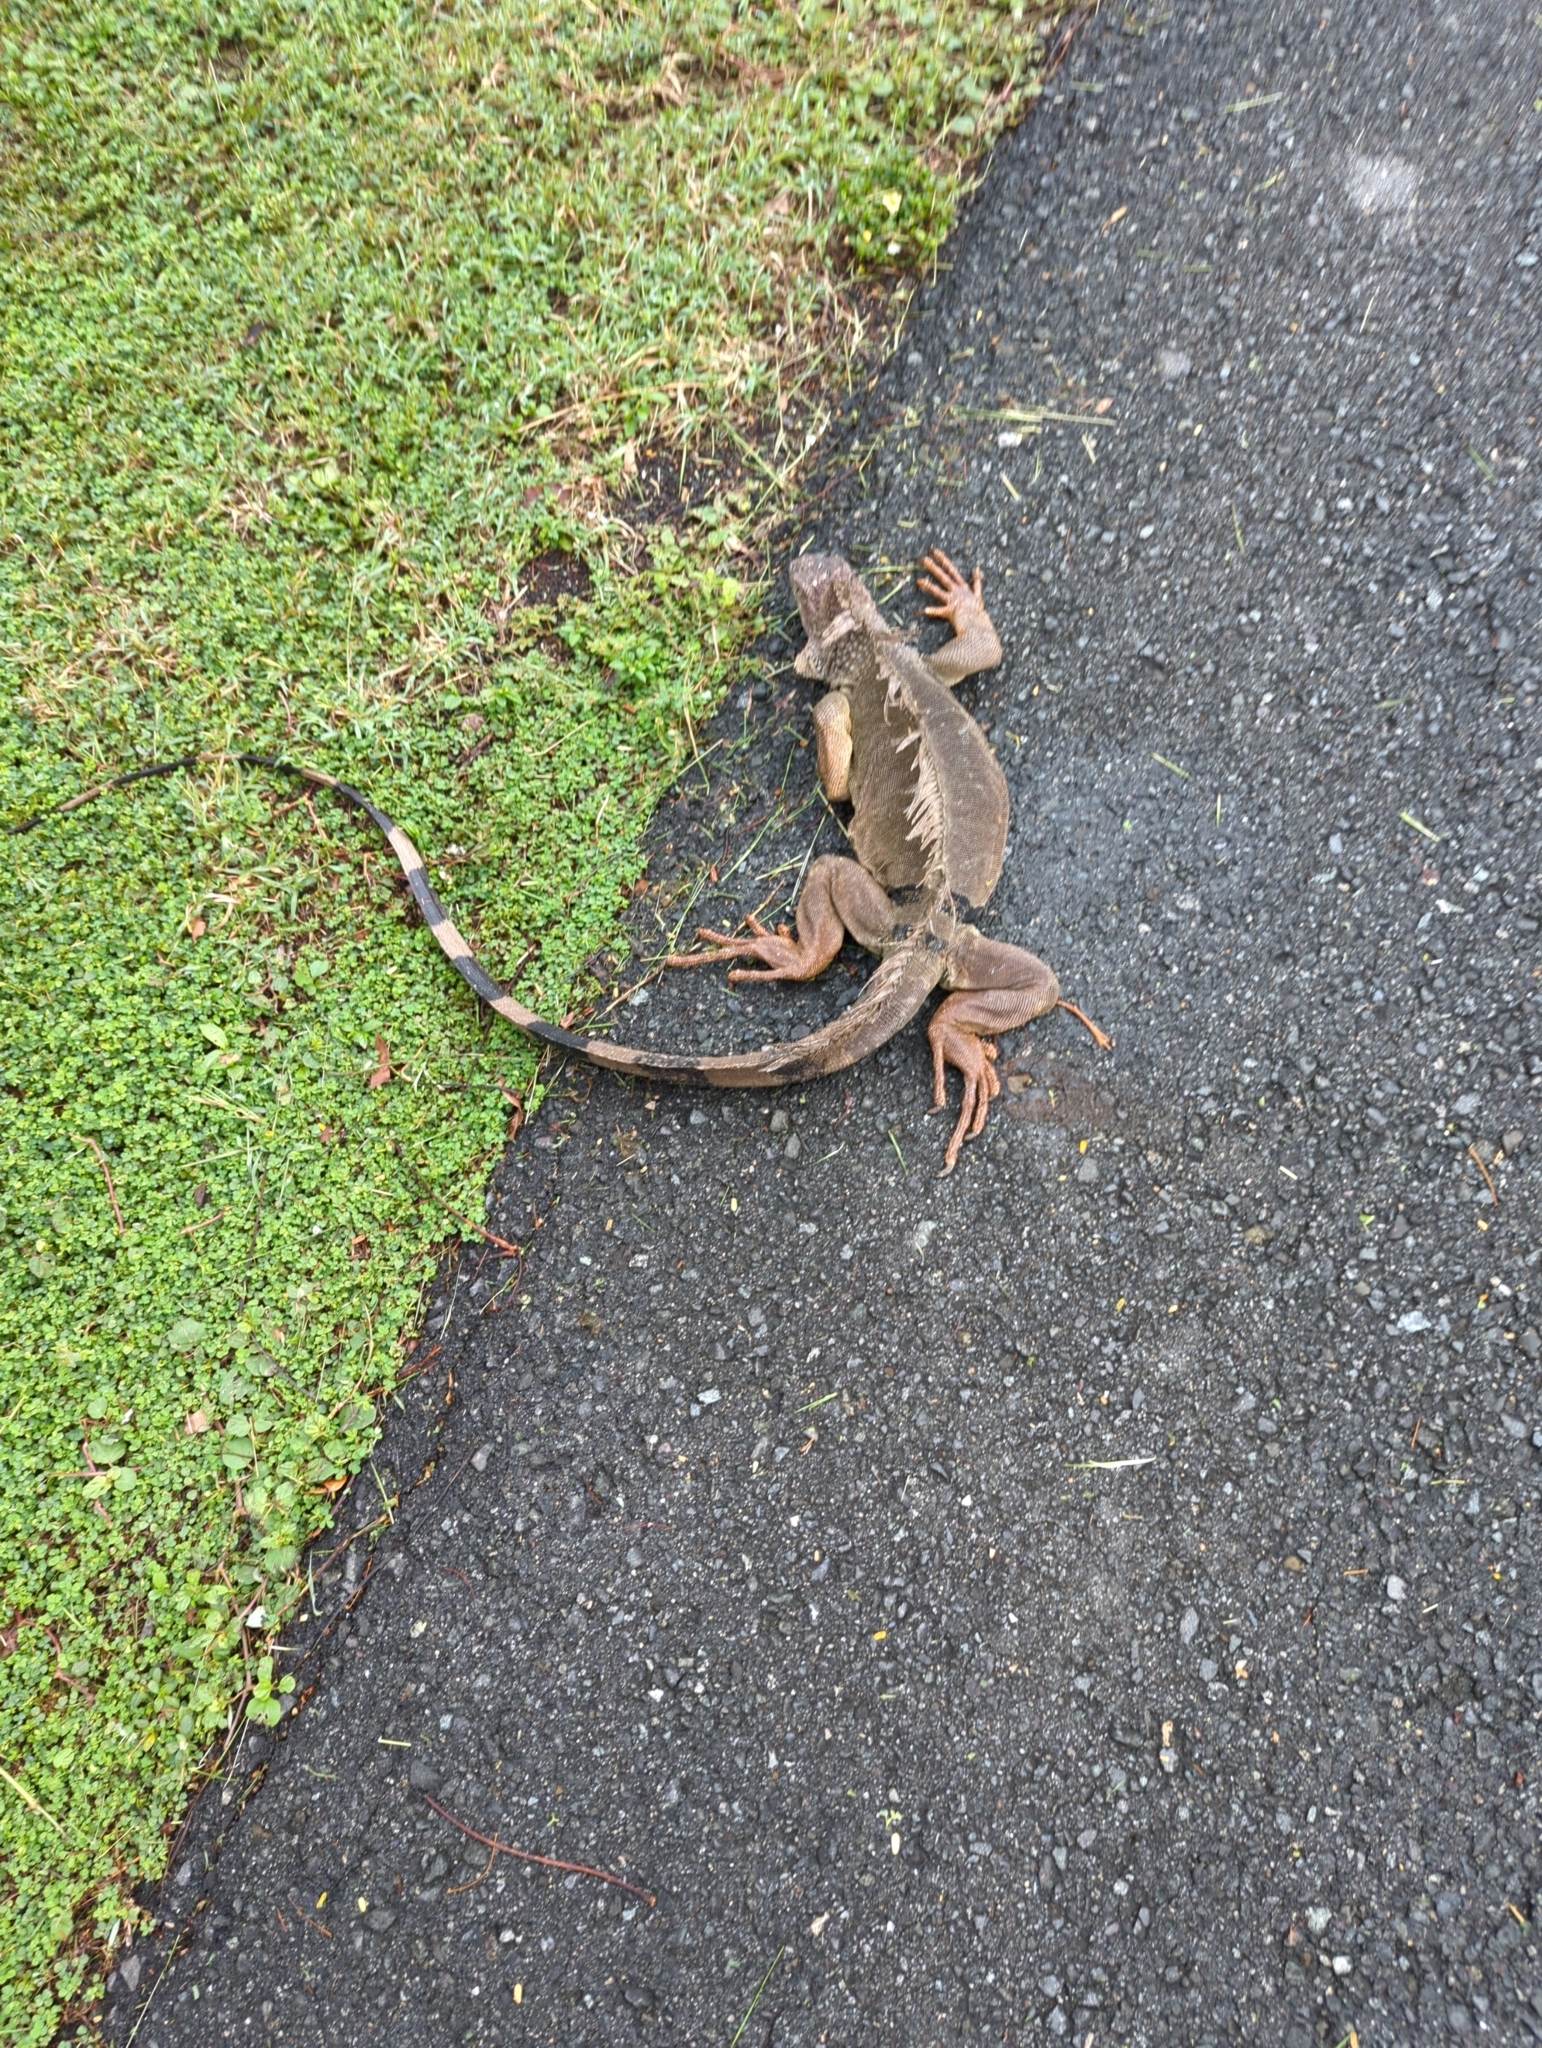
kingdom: Animalia
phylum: Chordata
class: Squamata
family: Iguanidae
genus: Iguana
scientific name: Iguana iguana
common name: Green iguana
